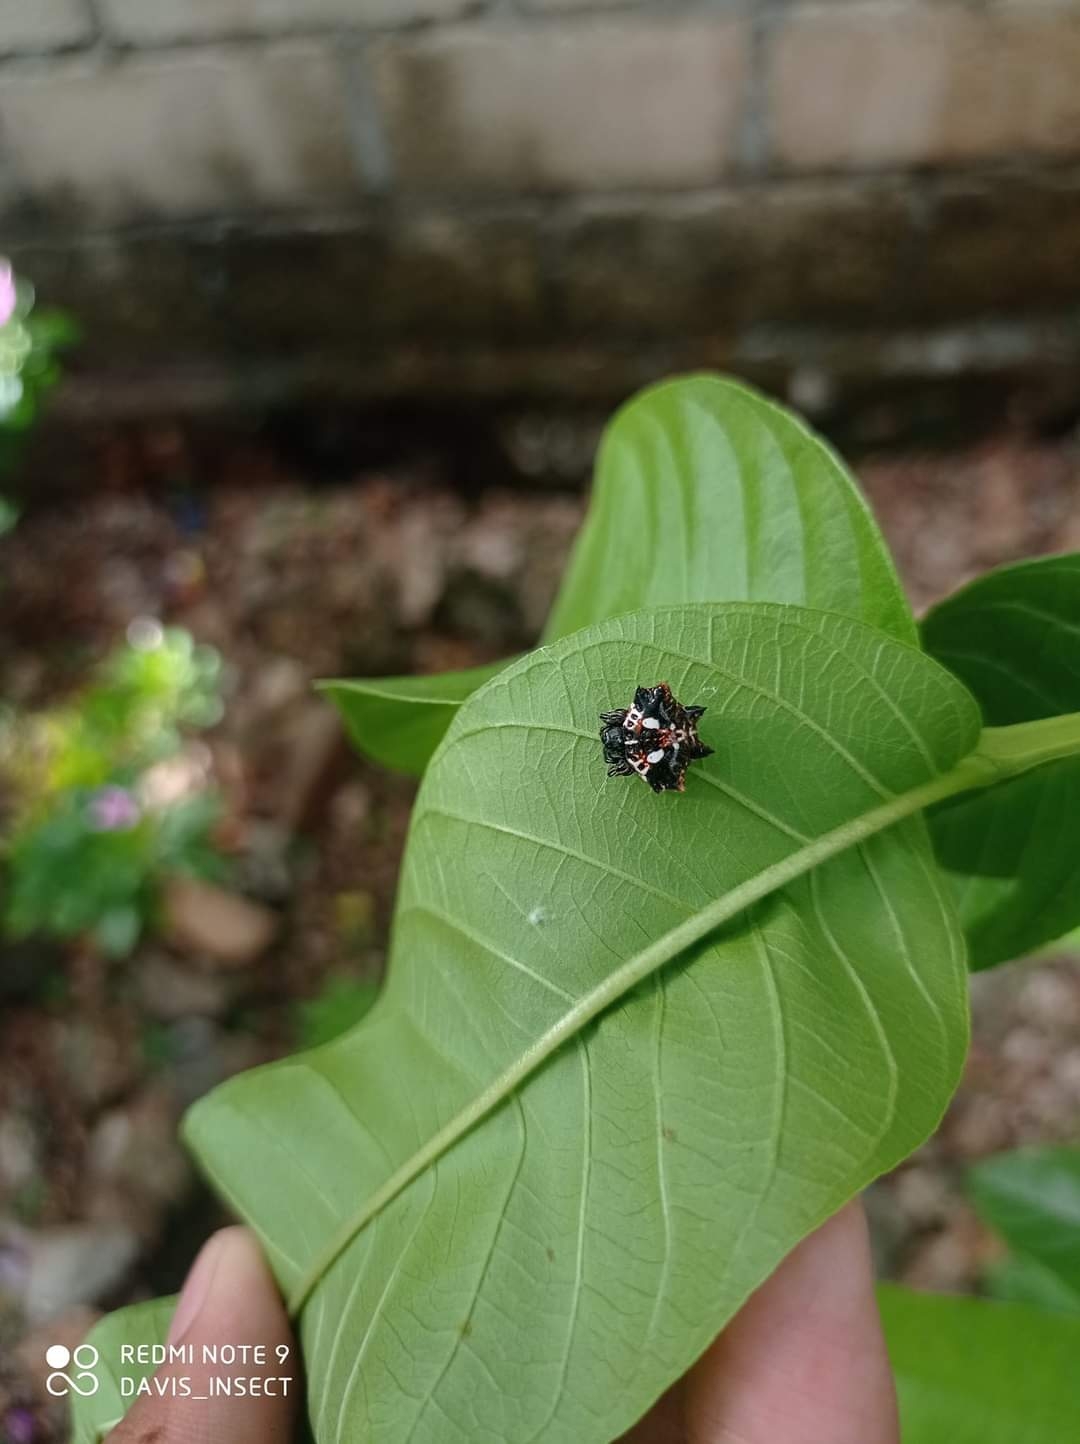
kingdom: Animalia
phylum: Arthropoda
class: Arachnida
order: Araneae
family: Araneidae
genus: Thelacantha
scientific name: Thelacantha brevispina
